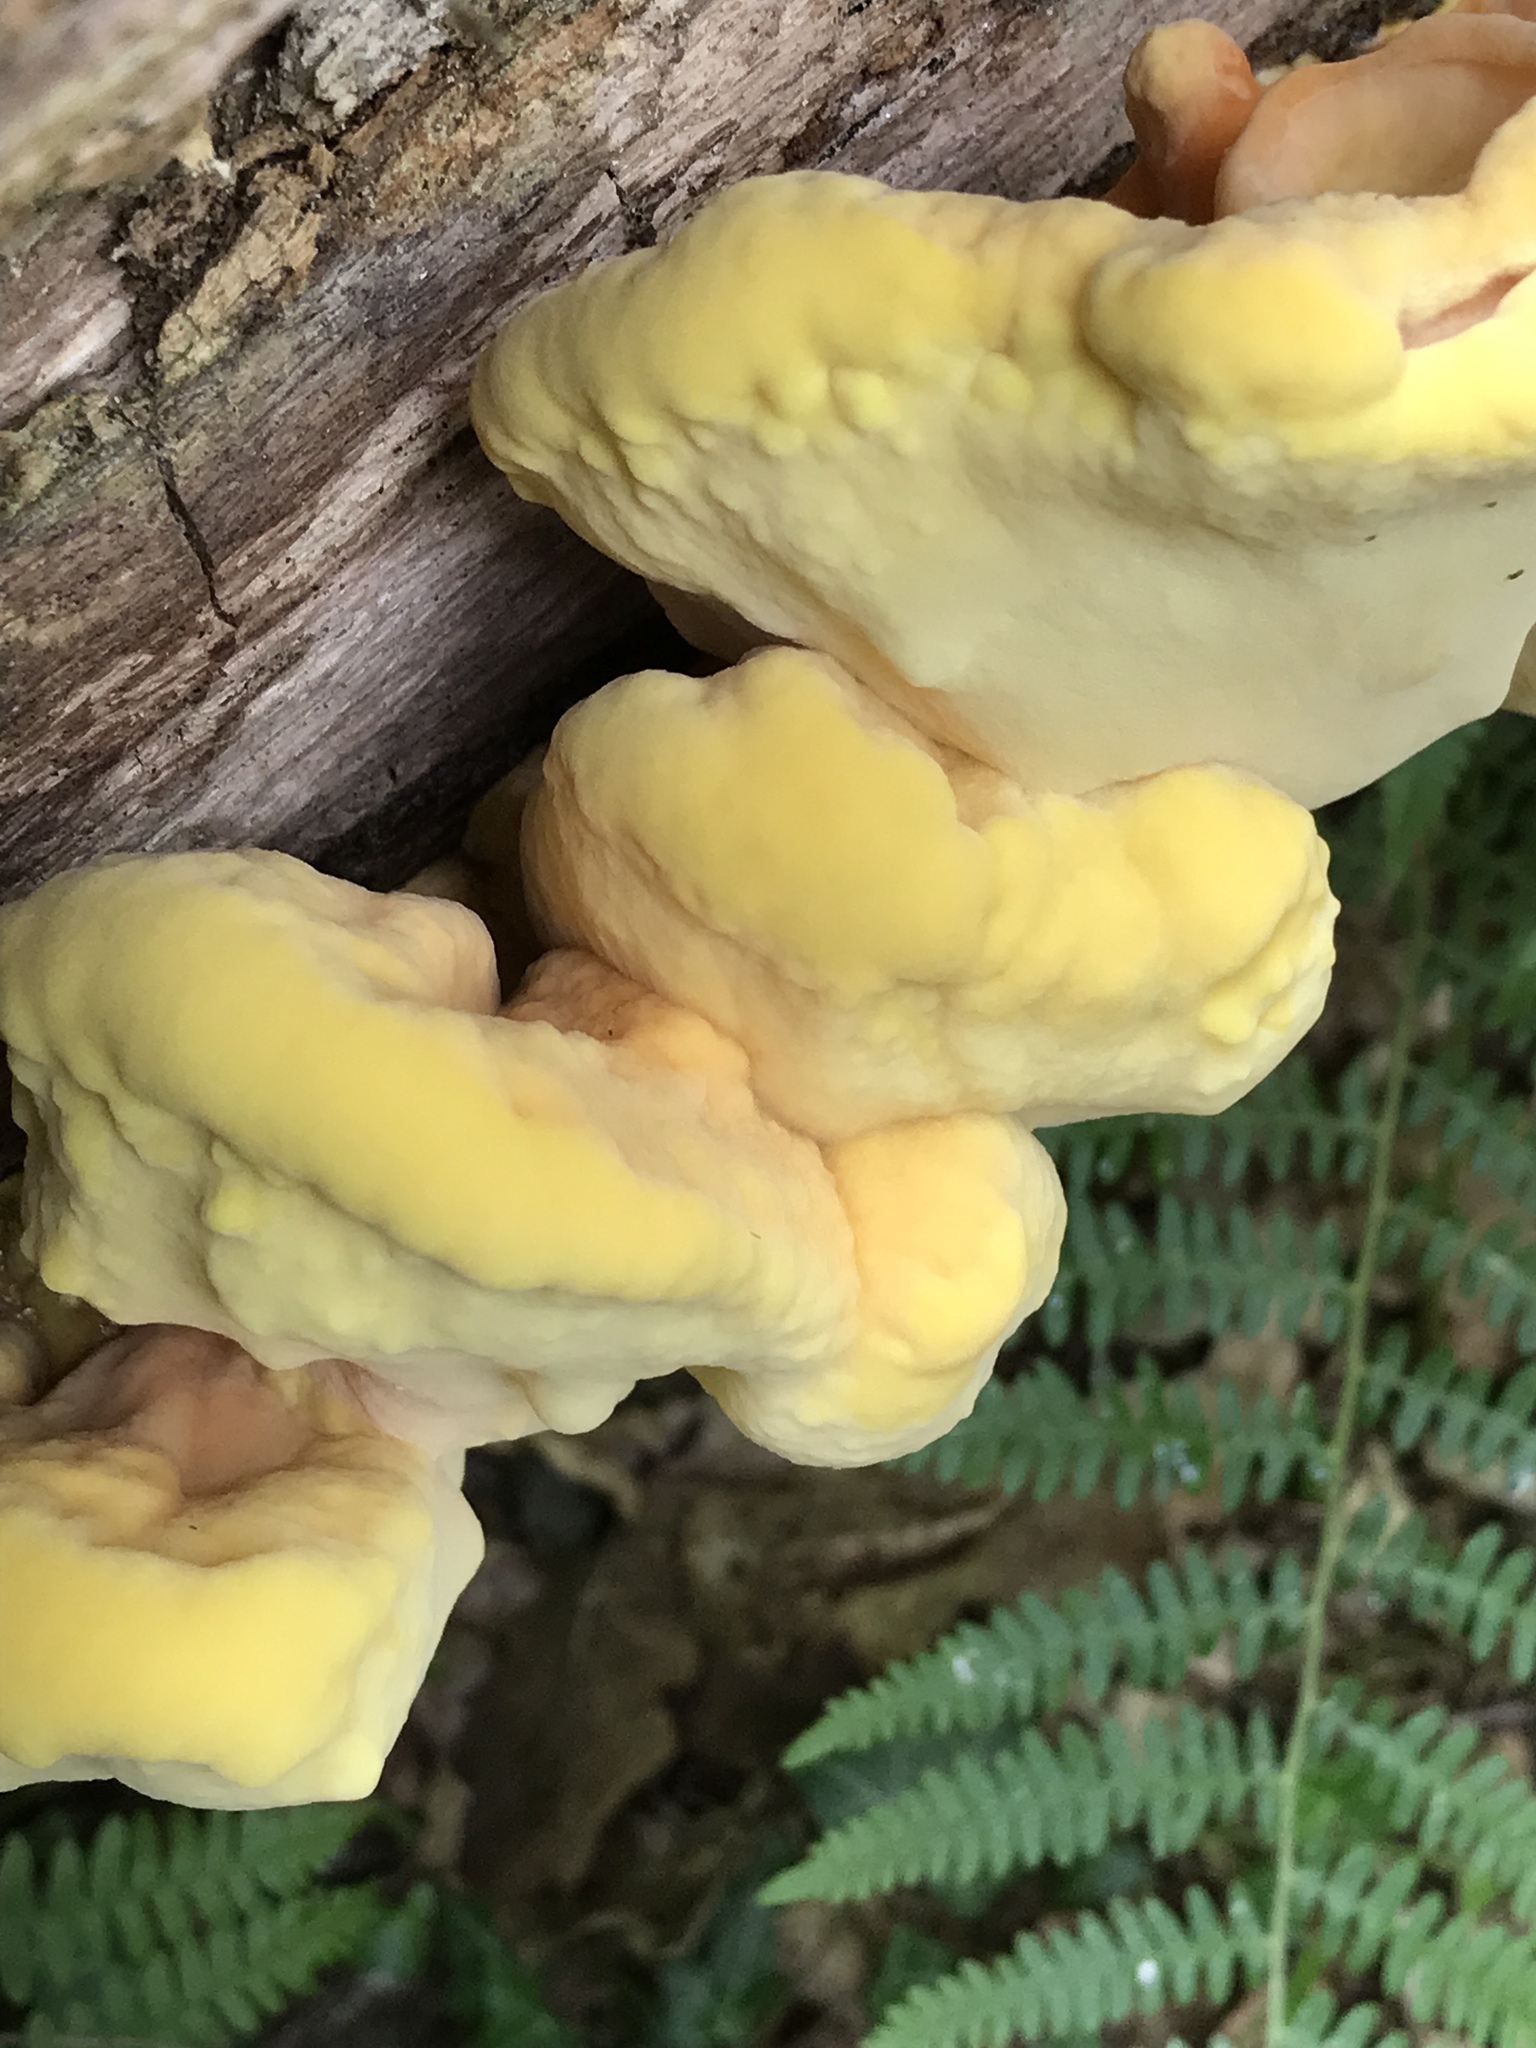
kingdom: Fungi
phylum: Basidiomycota
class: Agaricomycetes
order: Polyporales
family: Laetiporaceae
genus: Laetiporus
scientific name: Laetiporus sulphureus
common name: Chicken of the woods
